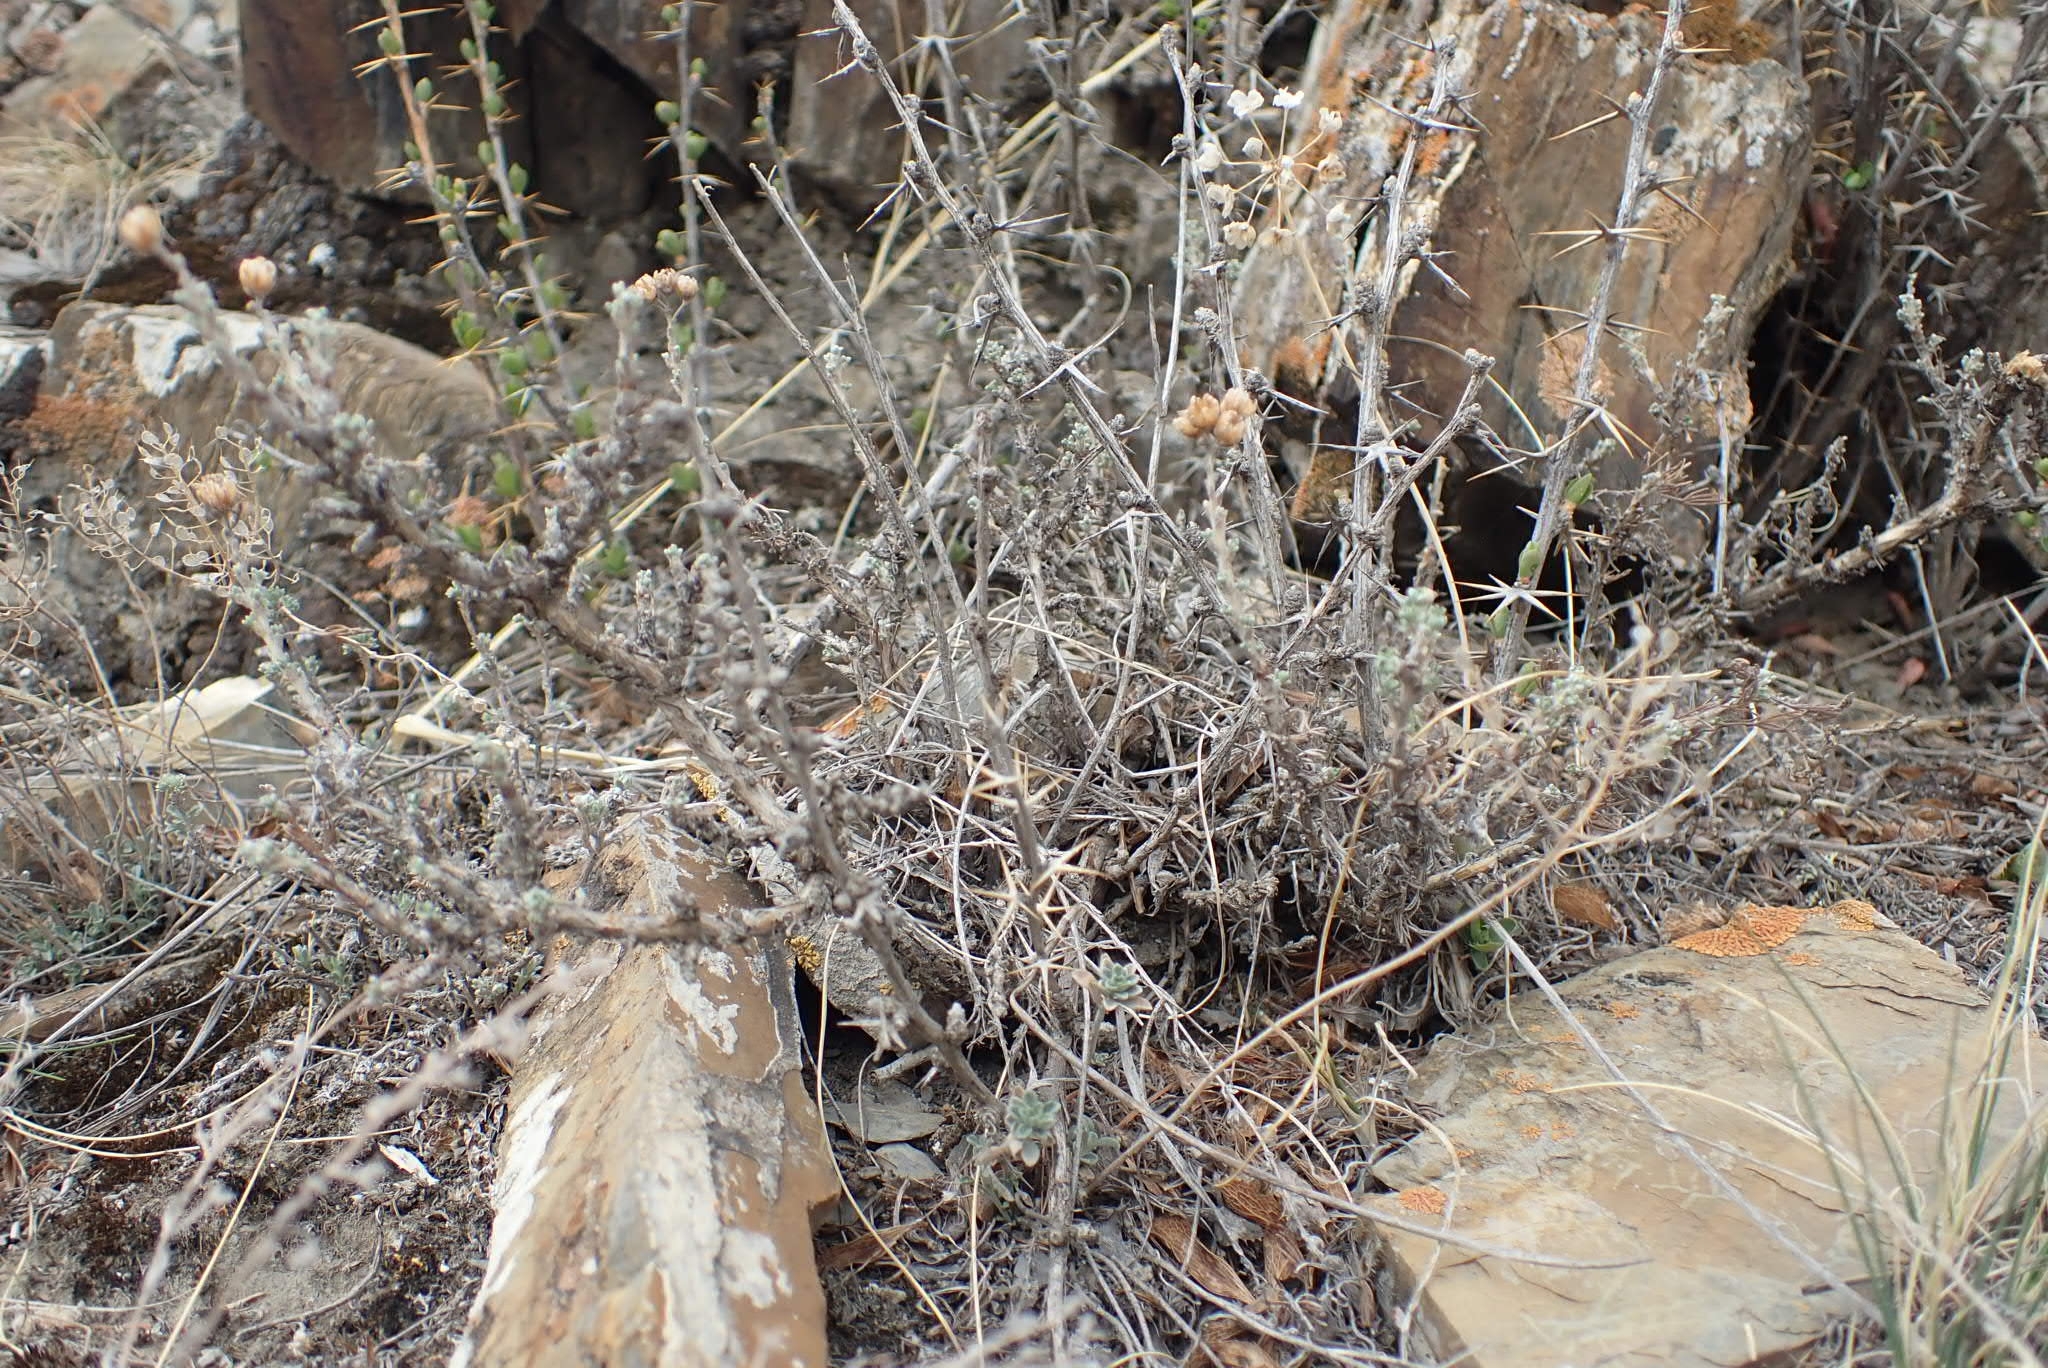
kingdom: Plantae
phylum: Tracheophyta
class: Magnoliopsida
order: Ranunculales
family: Berberidaceae
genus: Berberis
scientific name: Berberis sibirica
